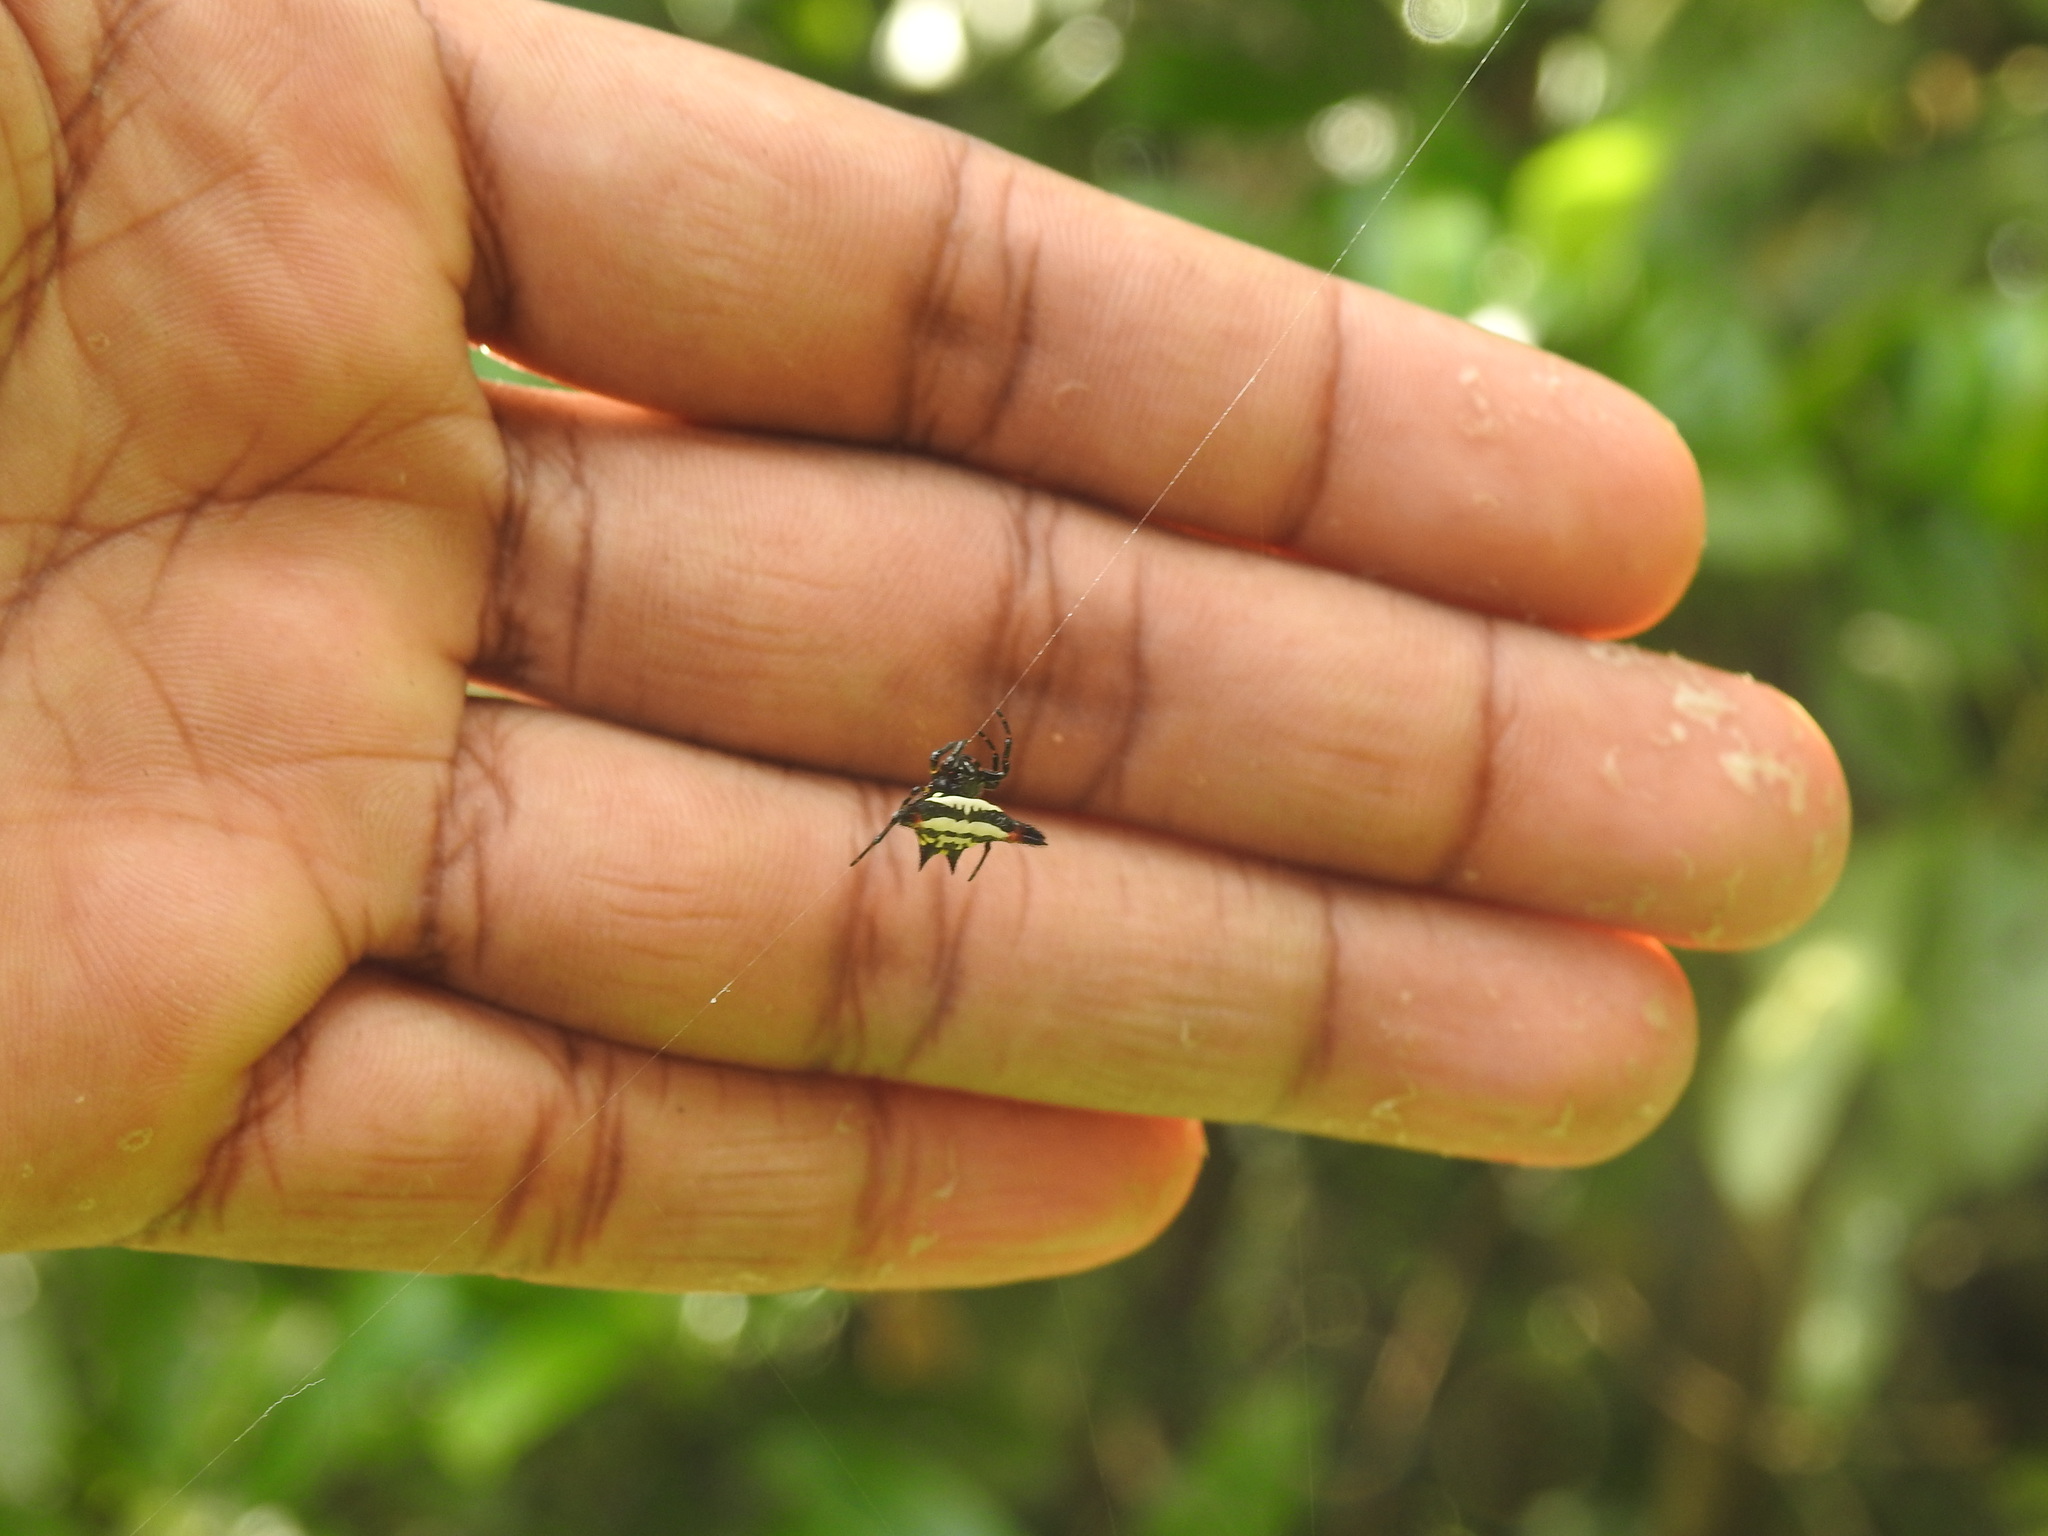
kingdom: Animalia
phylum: Arthropoda
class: Arachnida
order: Araneae
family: Araneidae
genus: Gasteracantha
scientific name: Gasteracantha geminata
